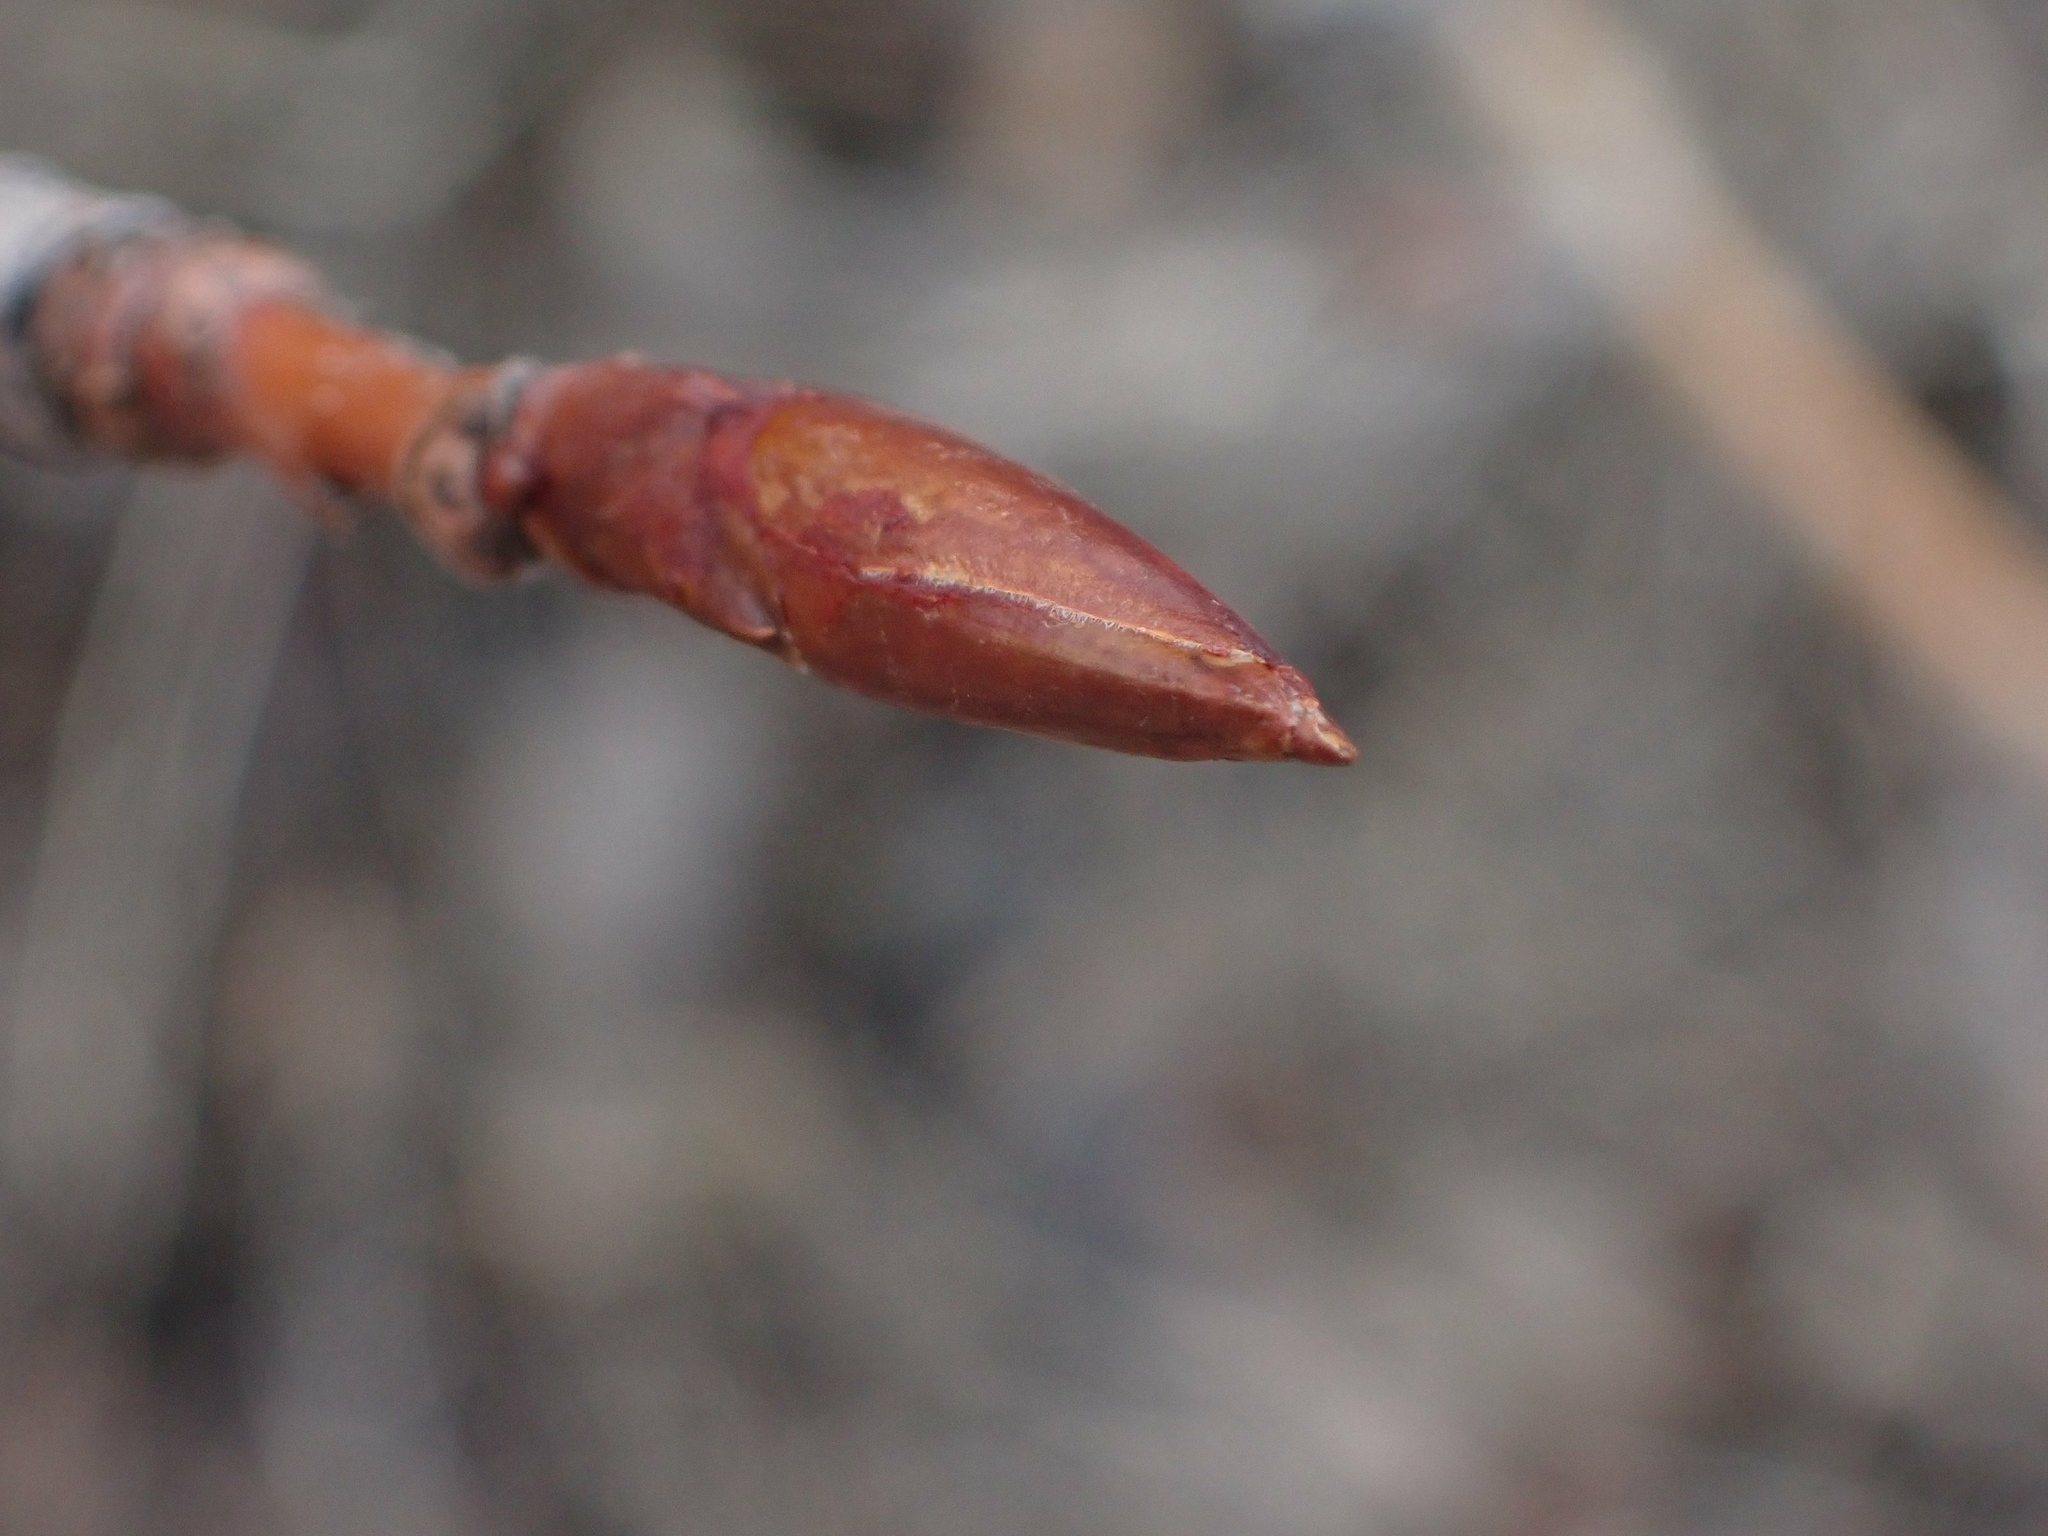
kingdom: Plantae
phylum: Tracheophyta
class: Magnoliopsida
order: Malpighiales
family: Salicaceae
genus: Populus
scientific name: Populus balsamifera
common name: Balsam poplar
